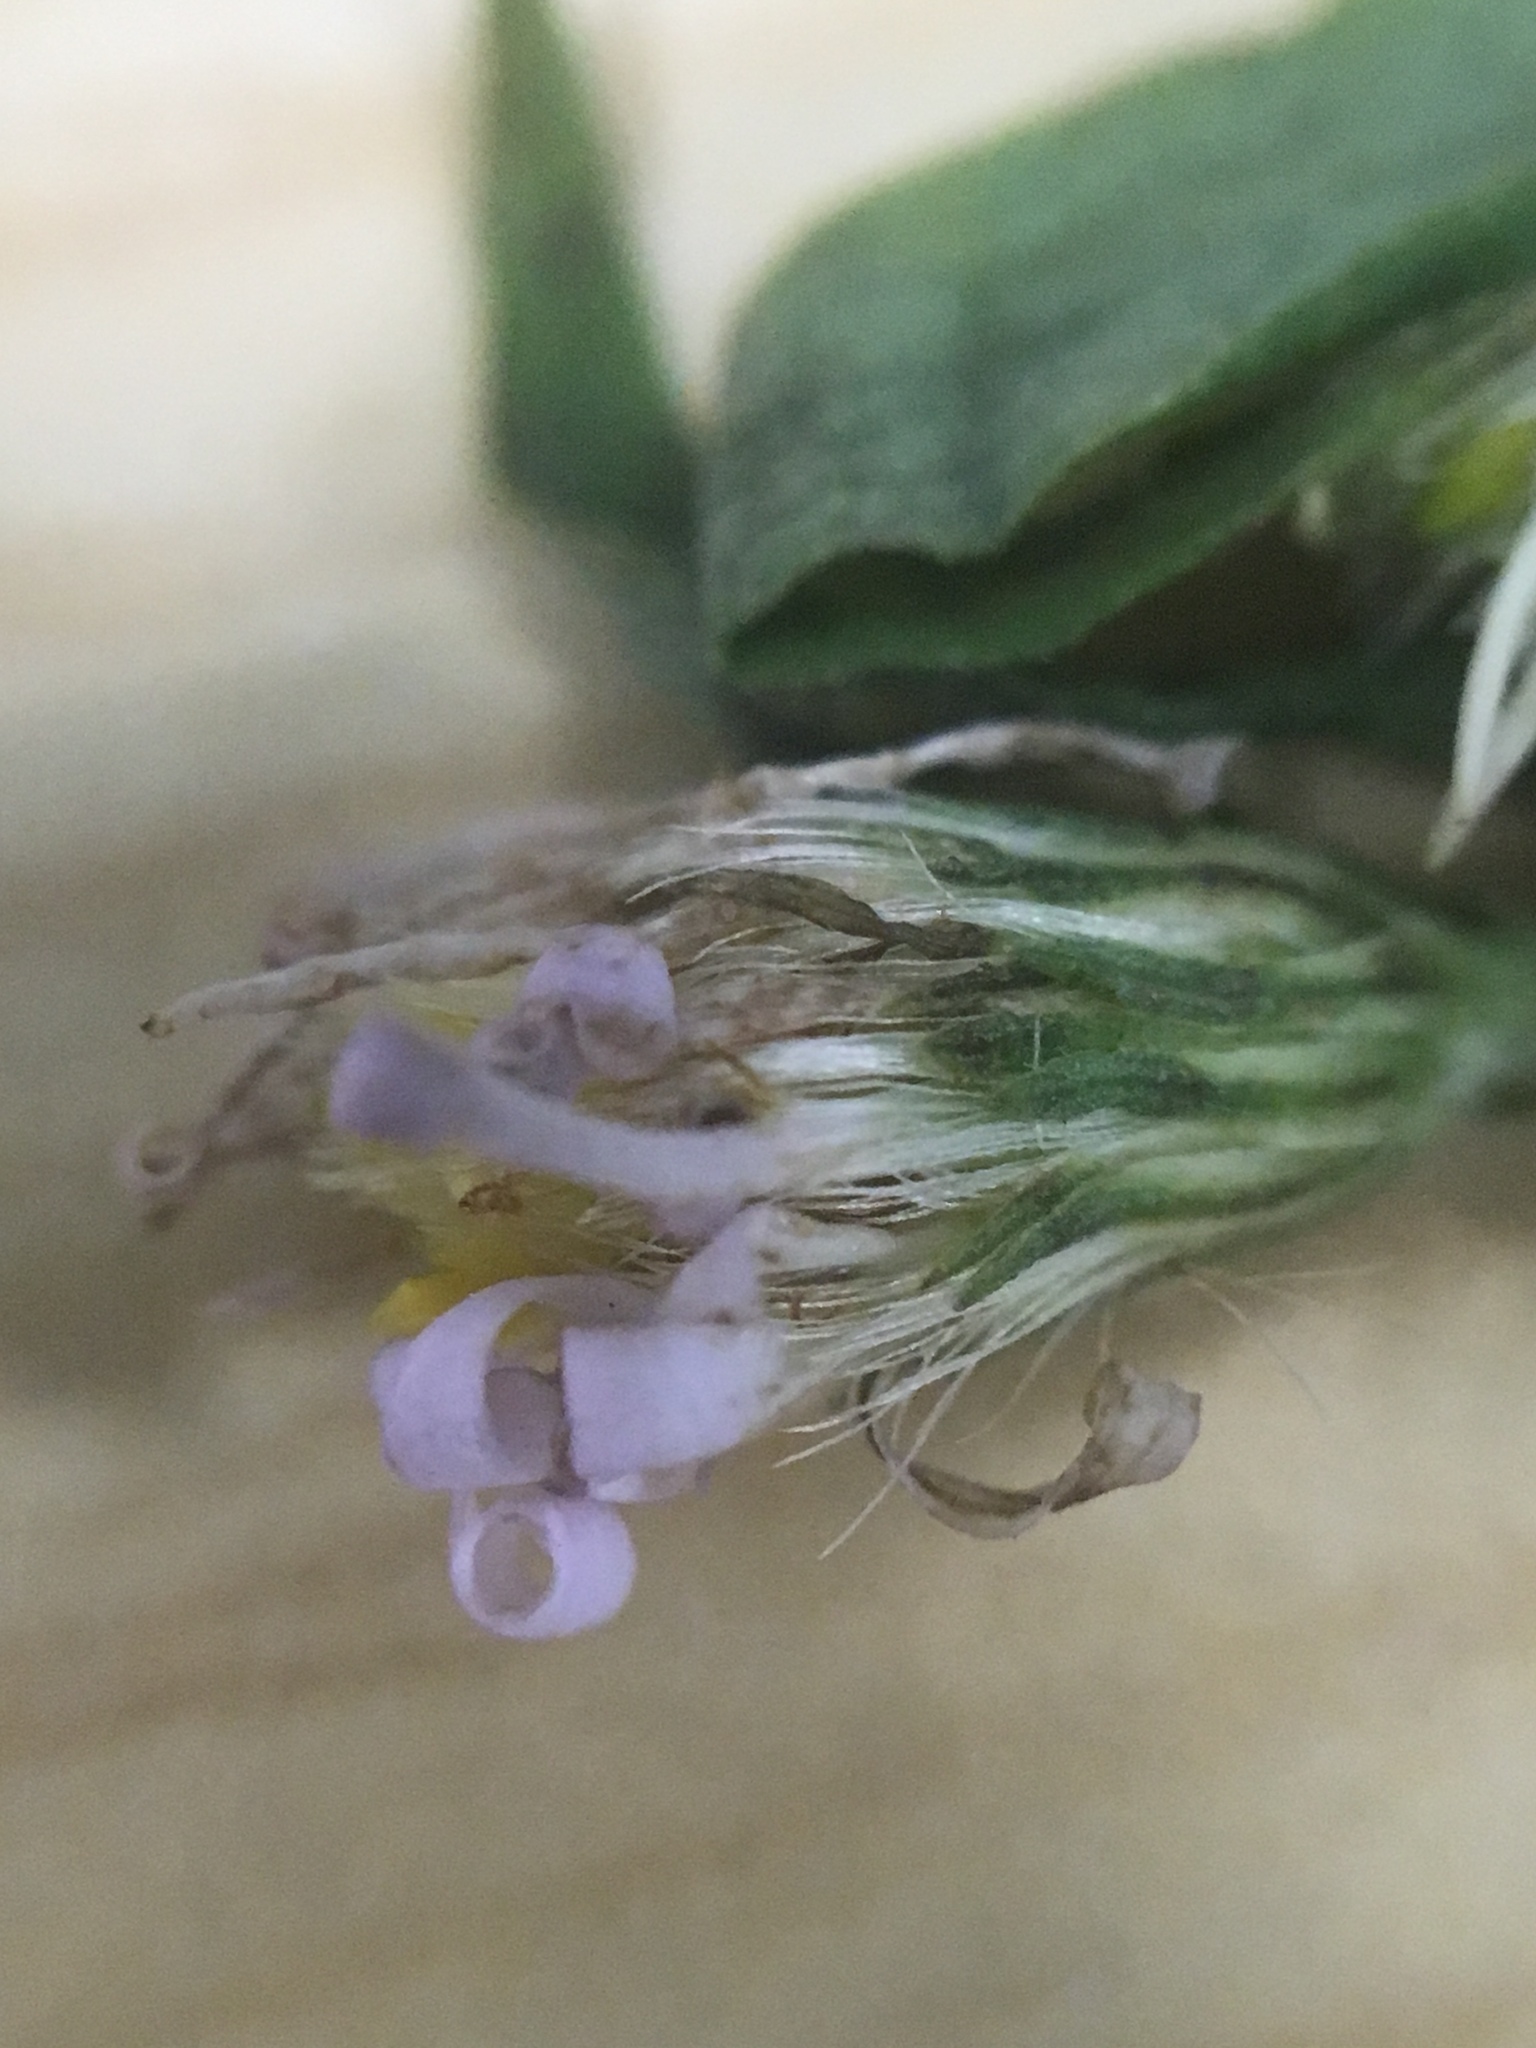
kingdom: Plantae
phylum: Tracheophyta
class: Magnoliopsida
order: Asterales
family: Asteraceae
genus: Symphyotrichum
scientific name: Symphyotrichum lateriflorum
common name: Calico aster
